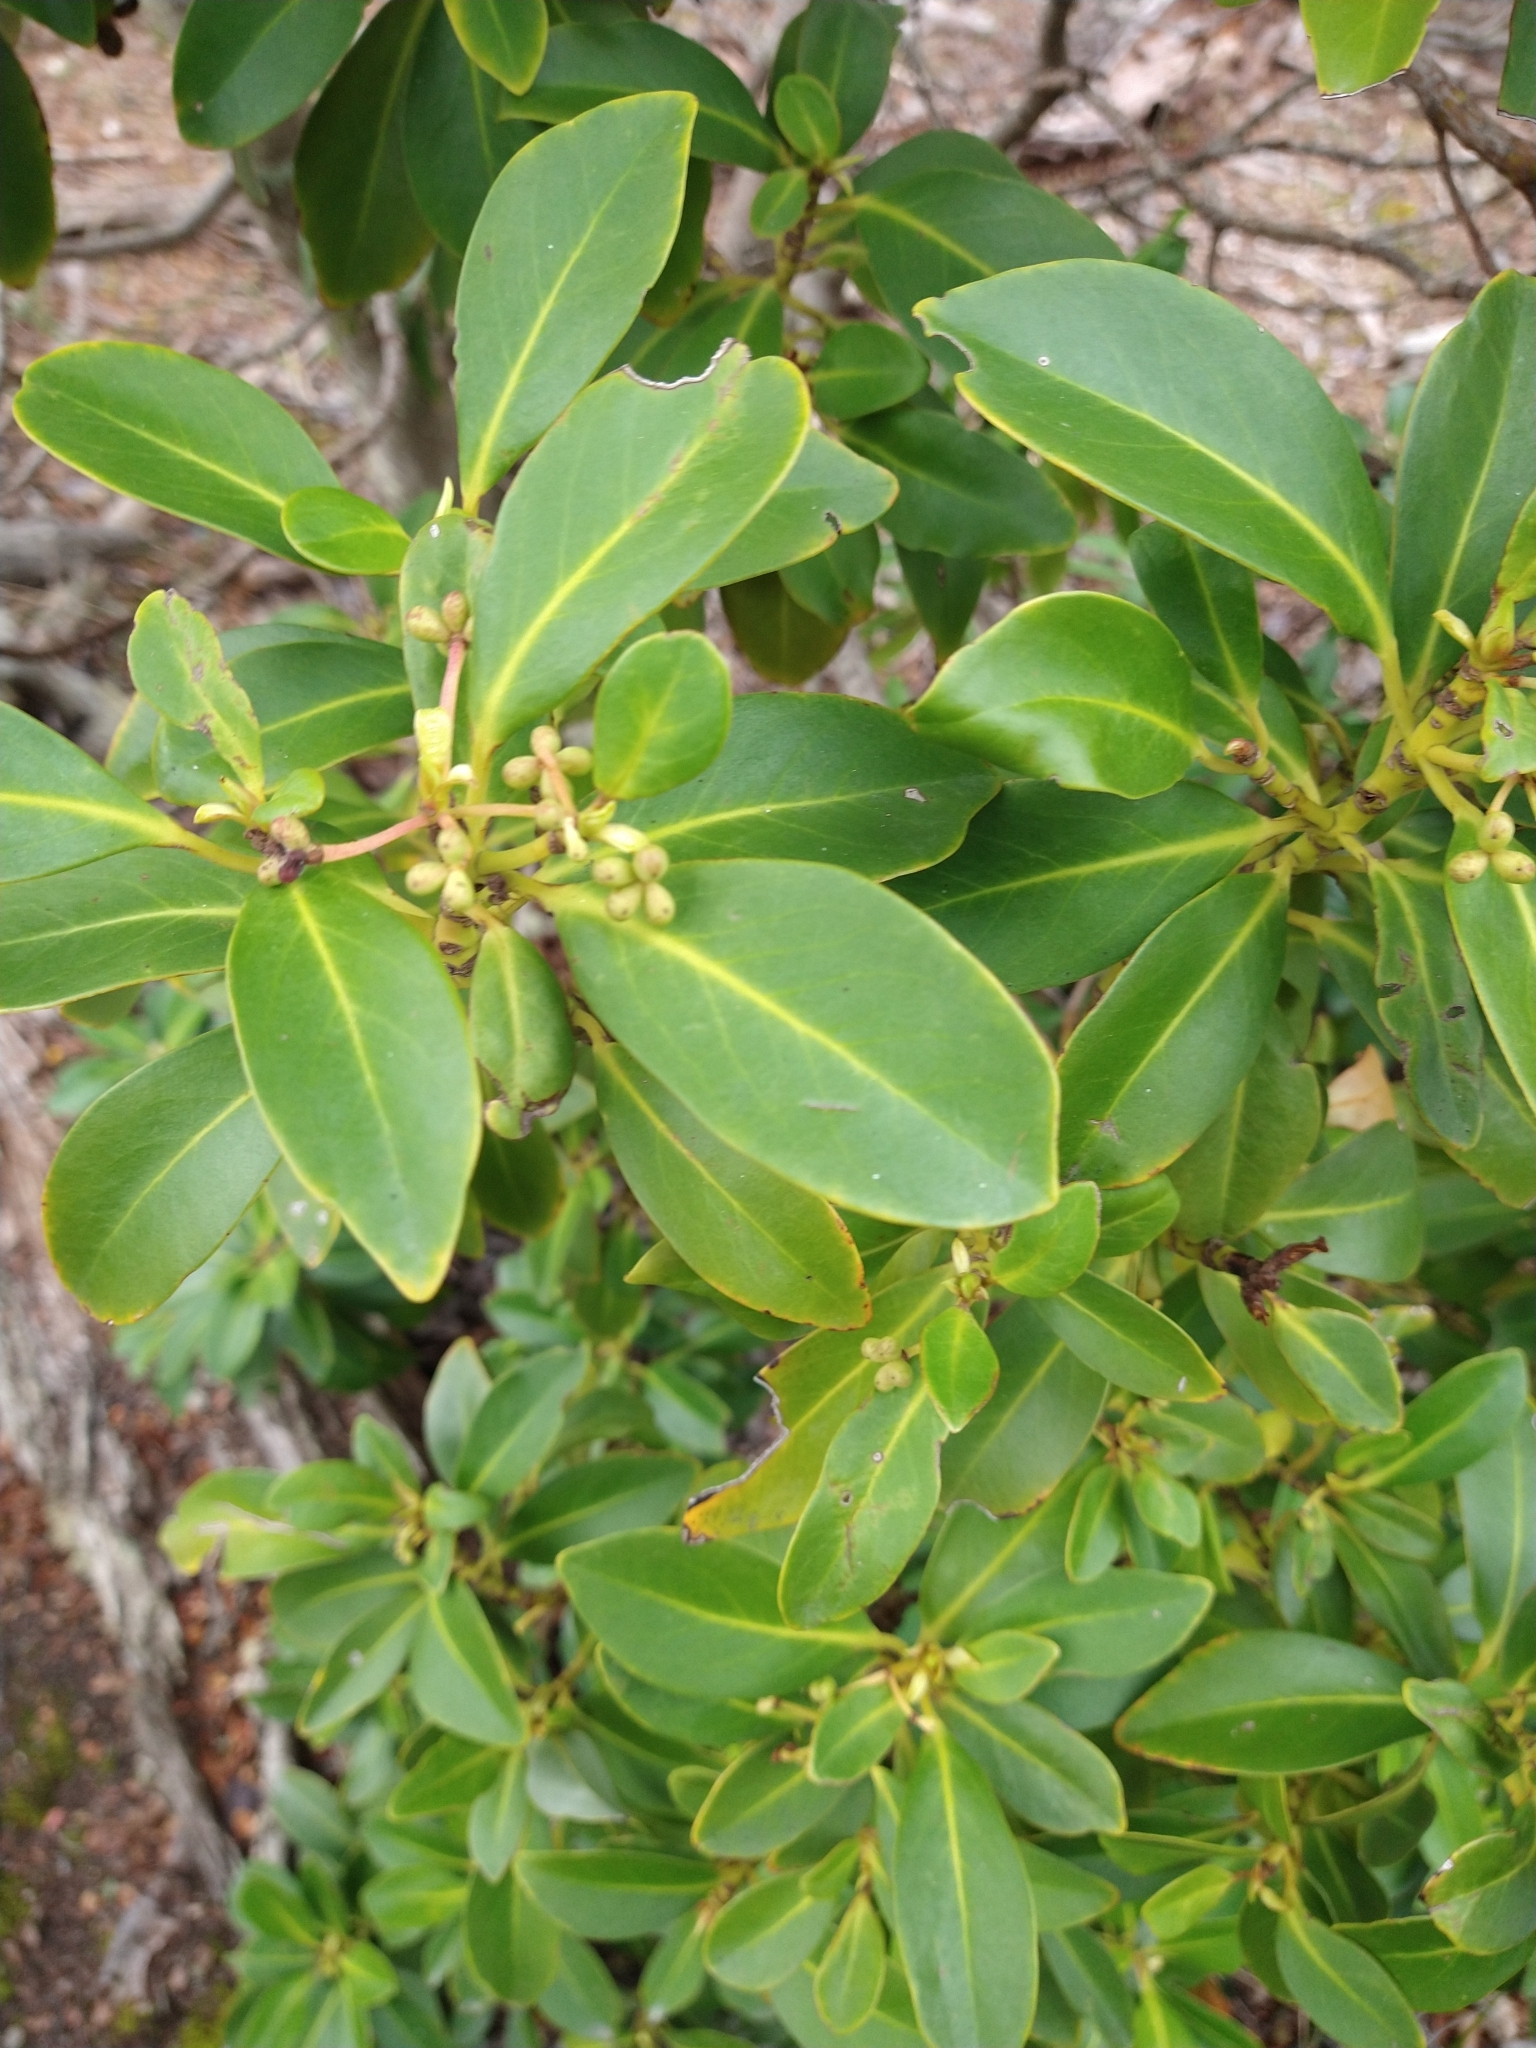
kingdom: Plantae
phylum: Tracheophyta
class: Magnoliopsida
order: Canellales
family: Winteraceae
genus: Drimys
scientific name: Drimys winteri
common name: Winter's-bark
